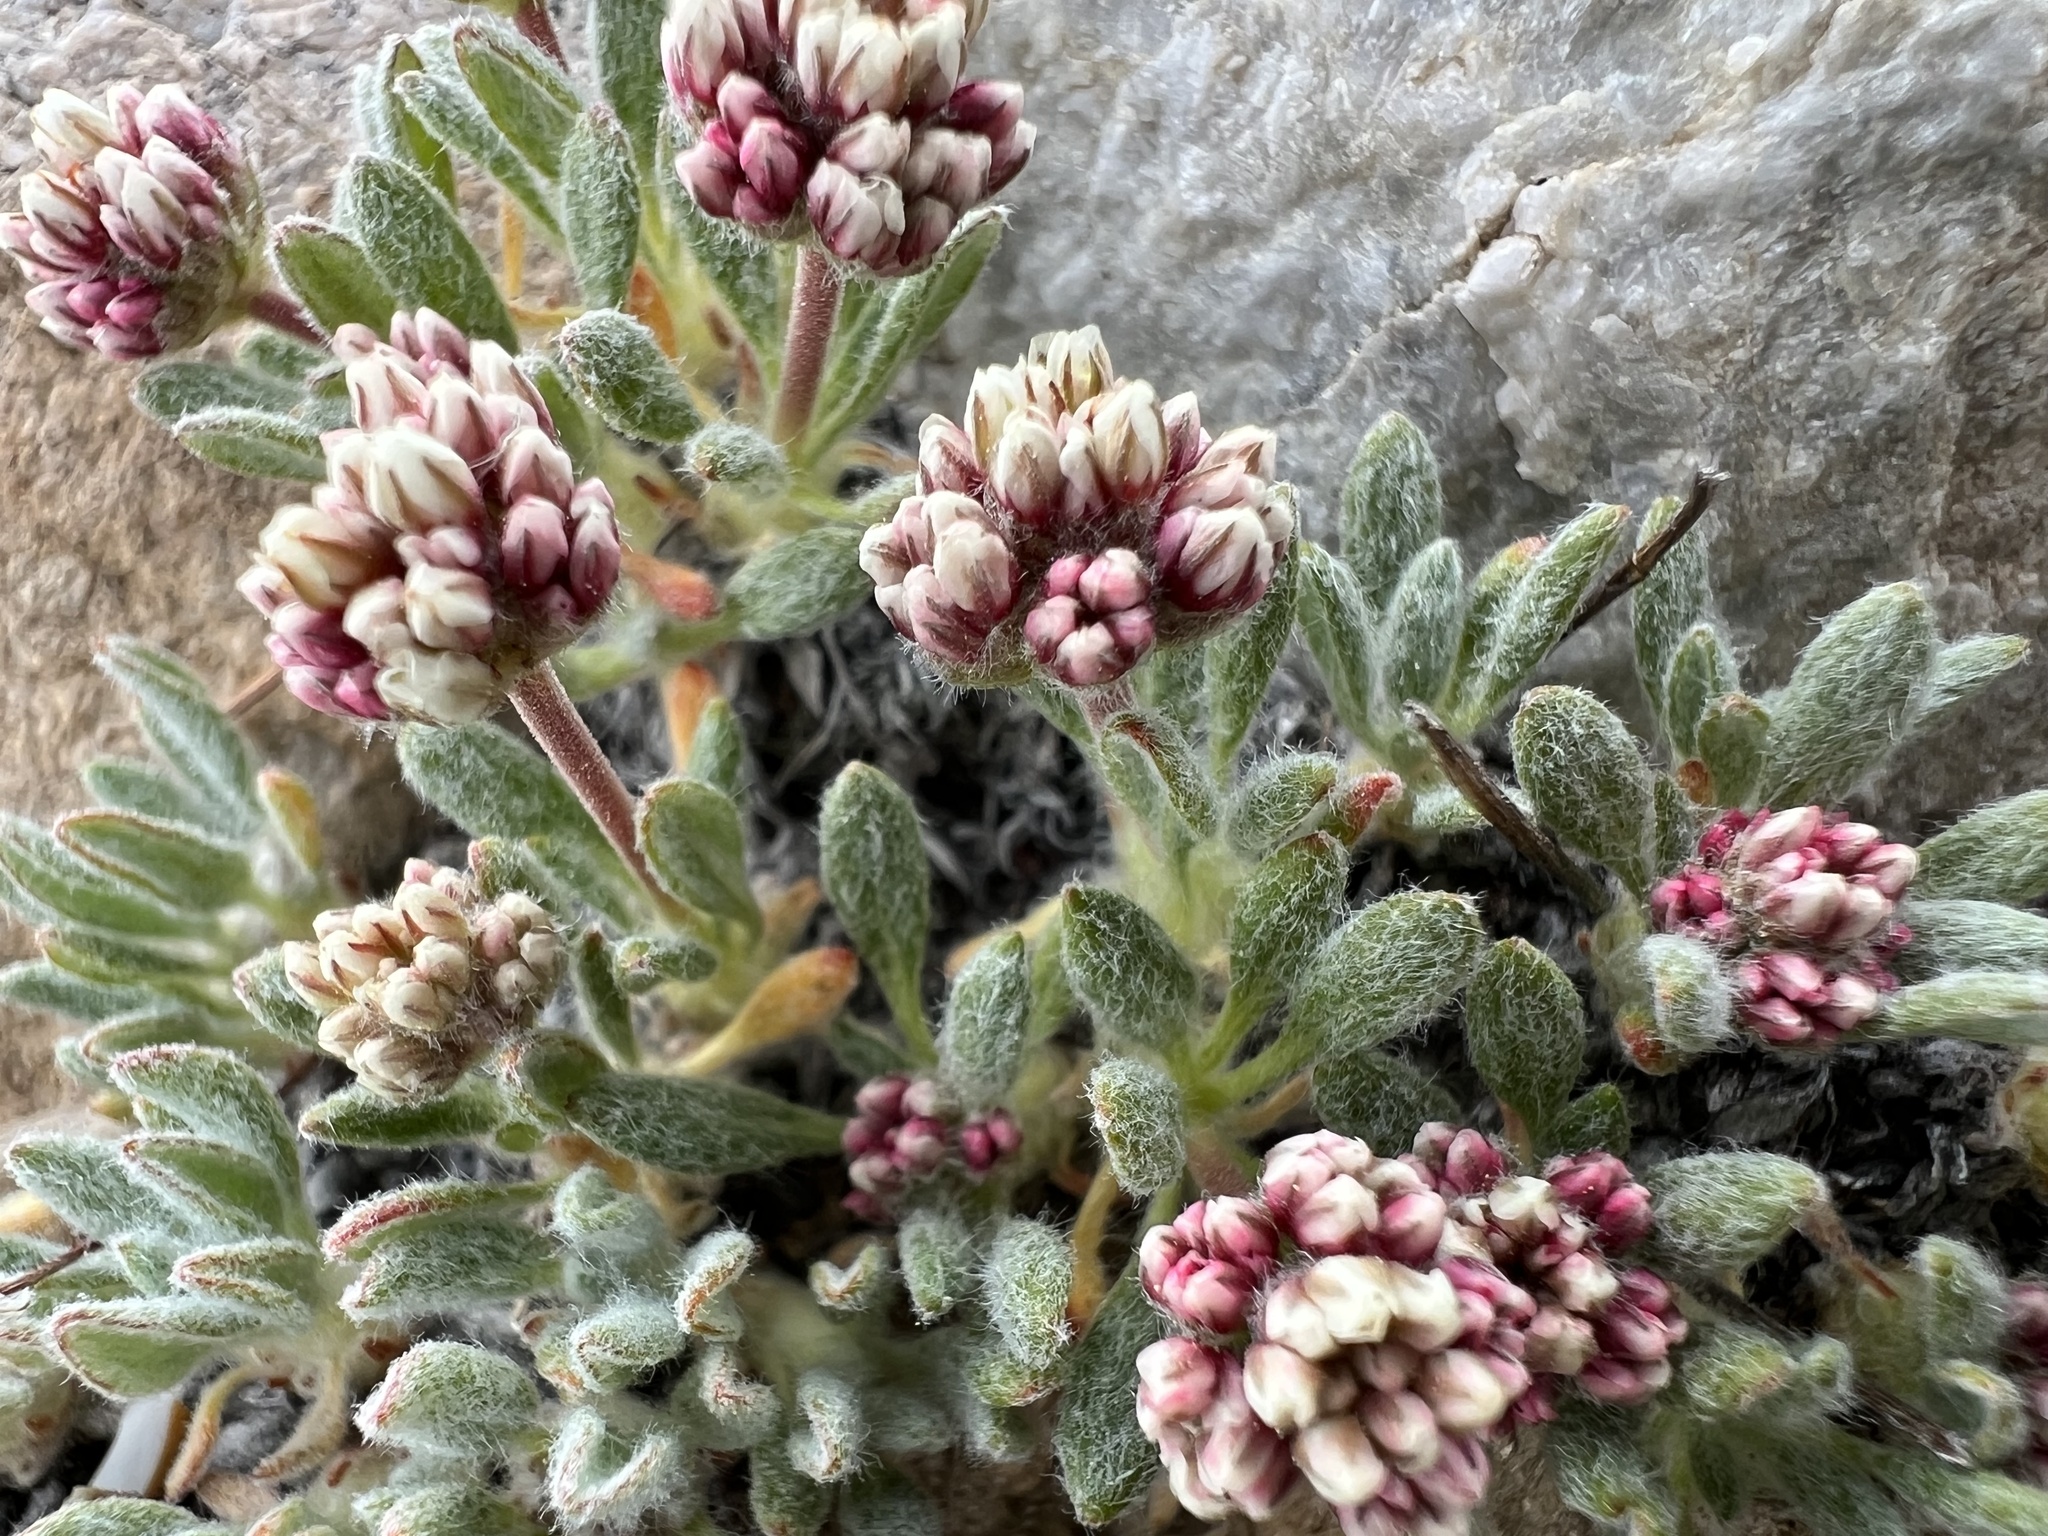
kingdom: Plantae
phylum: Tracheophyta
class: Magnoliopsida
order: Caryophyllales
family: Polygonaceae
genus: Eriogonum
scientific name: Eriogonum gracilipes
